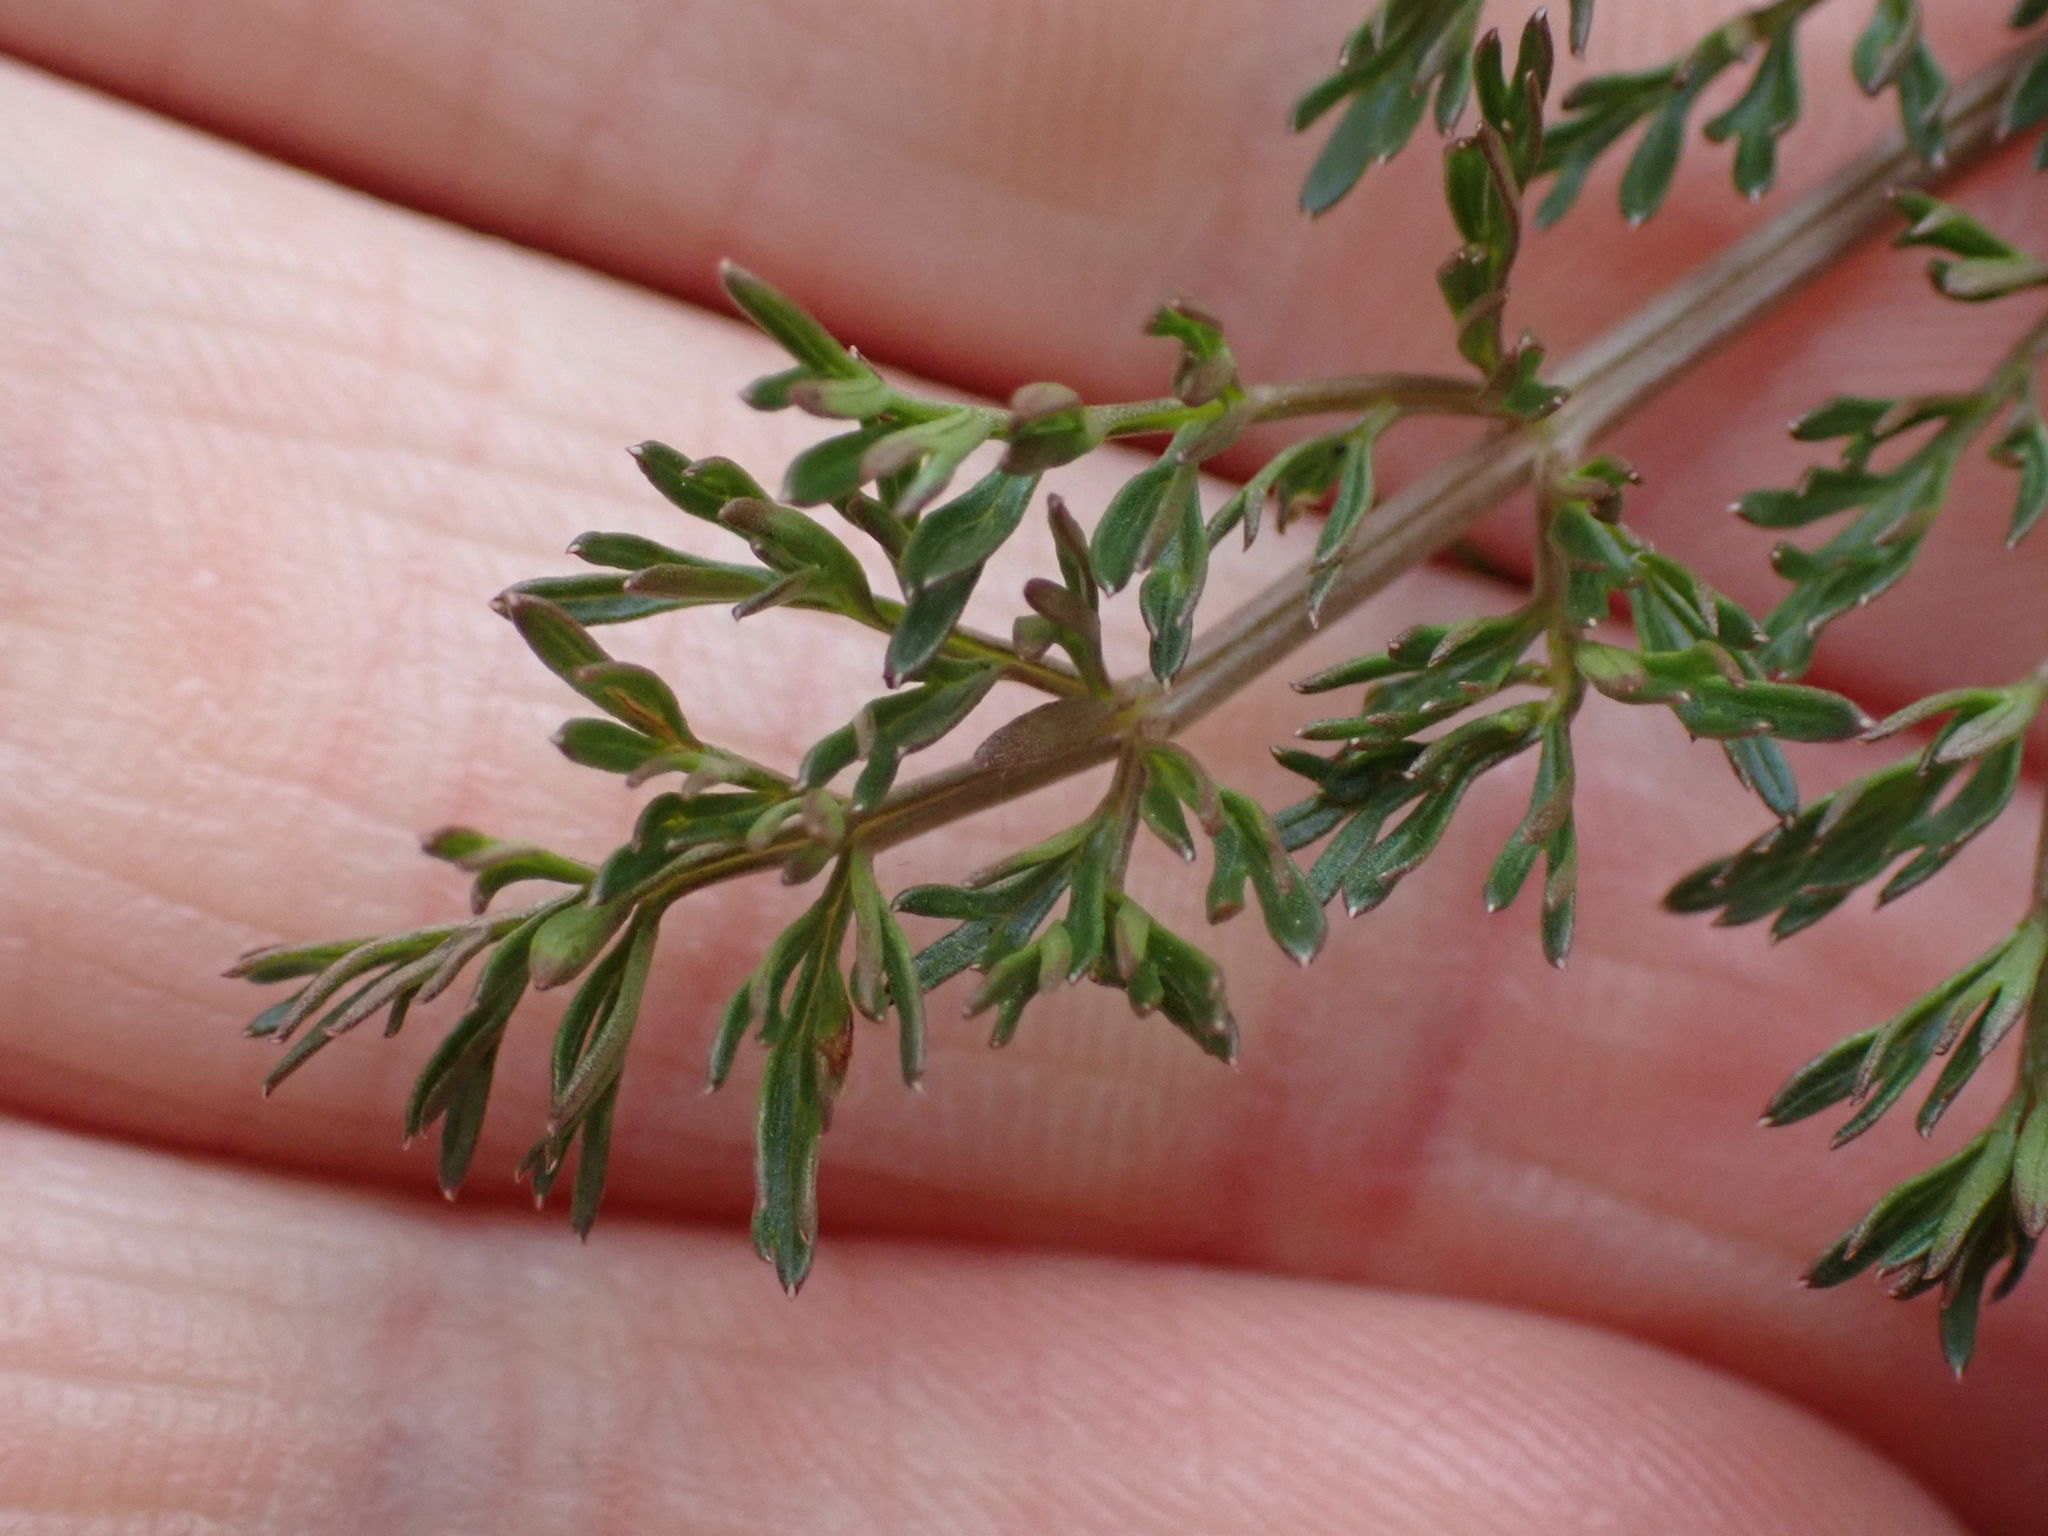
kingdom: Plantae
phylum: Tracheophyta
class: Magnoliopsida
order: Apiales
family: Apiaceae
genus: Lomatium
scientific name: Lomatium utriculatum
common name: Fine-leaf desert-parsley
